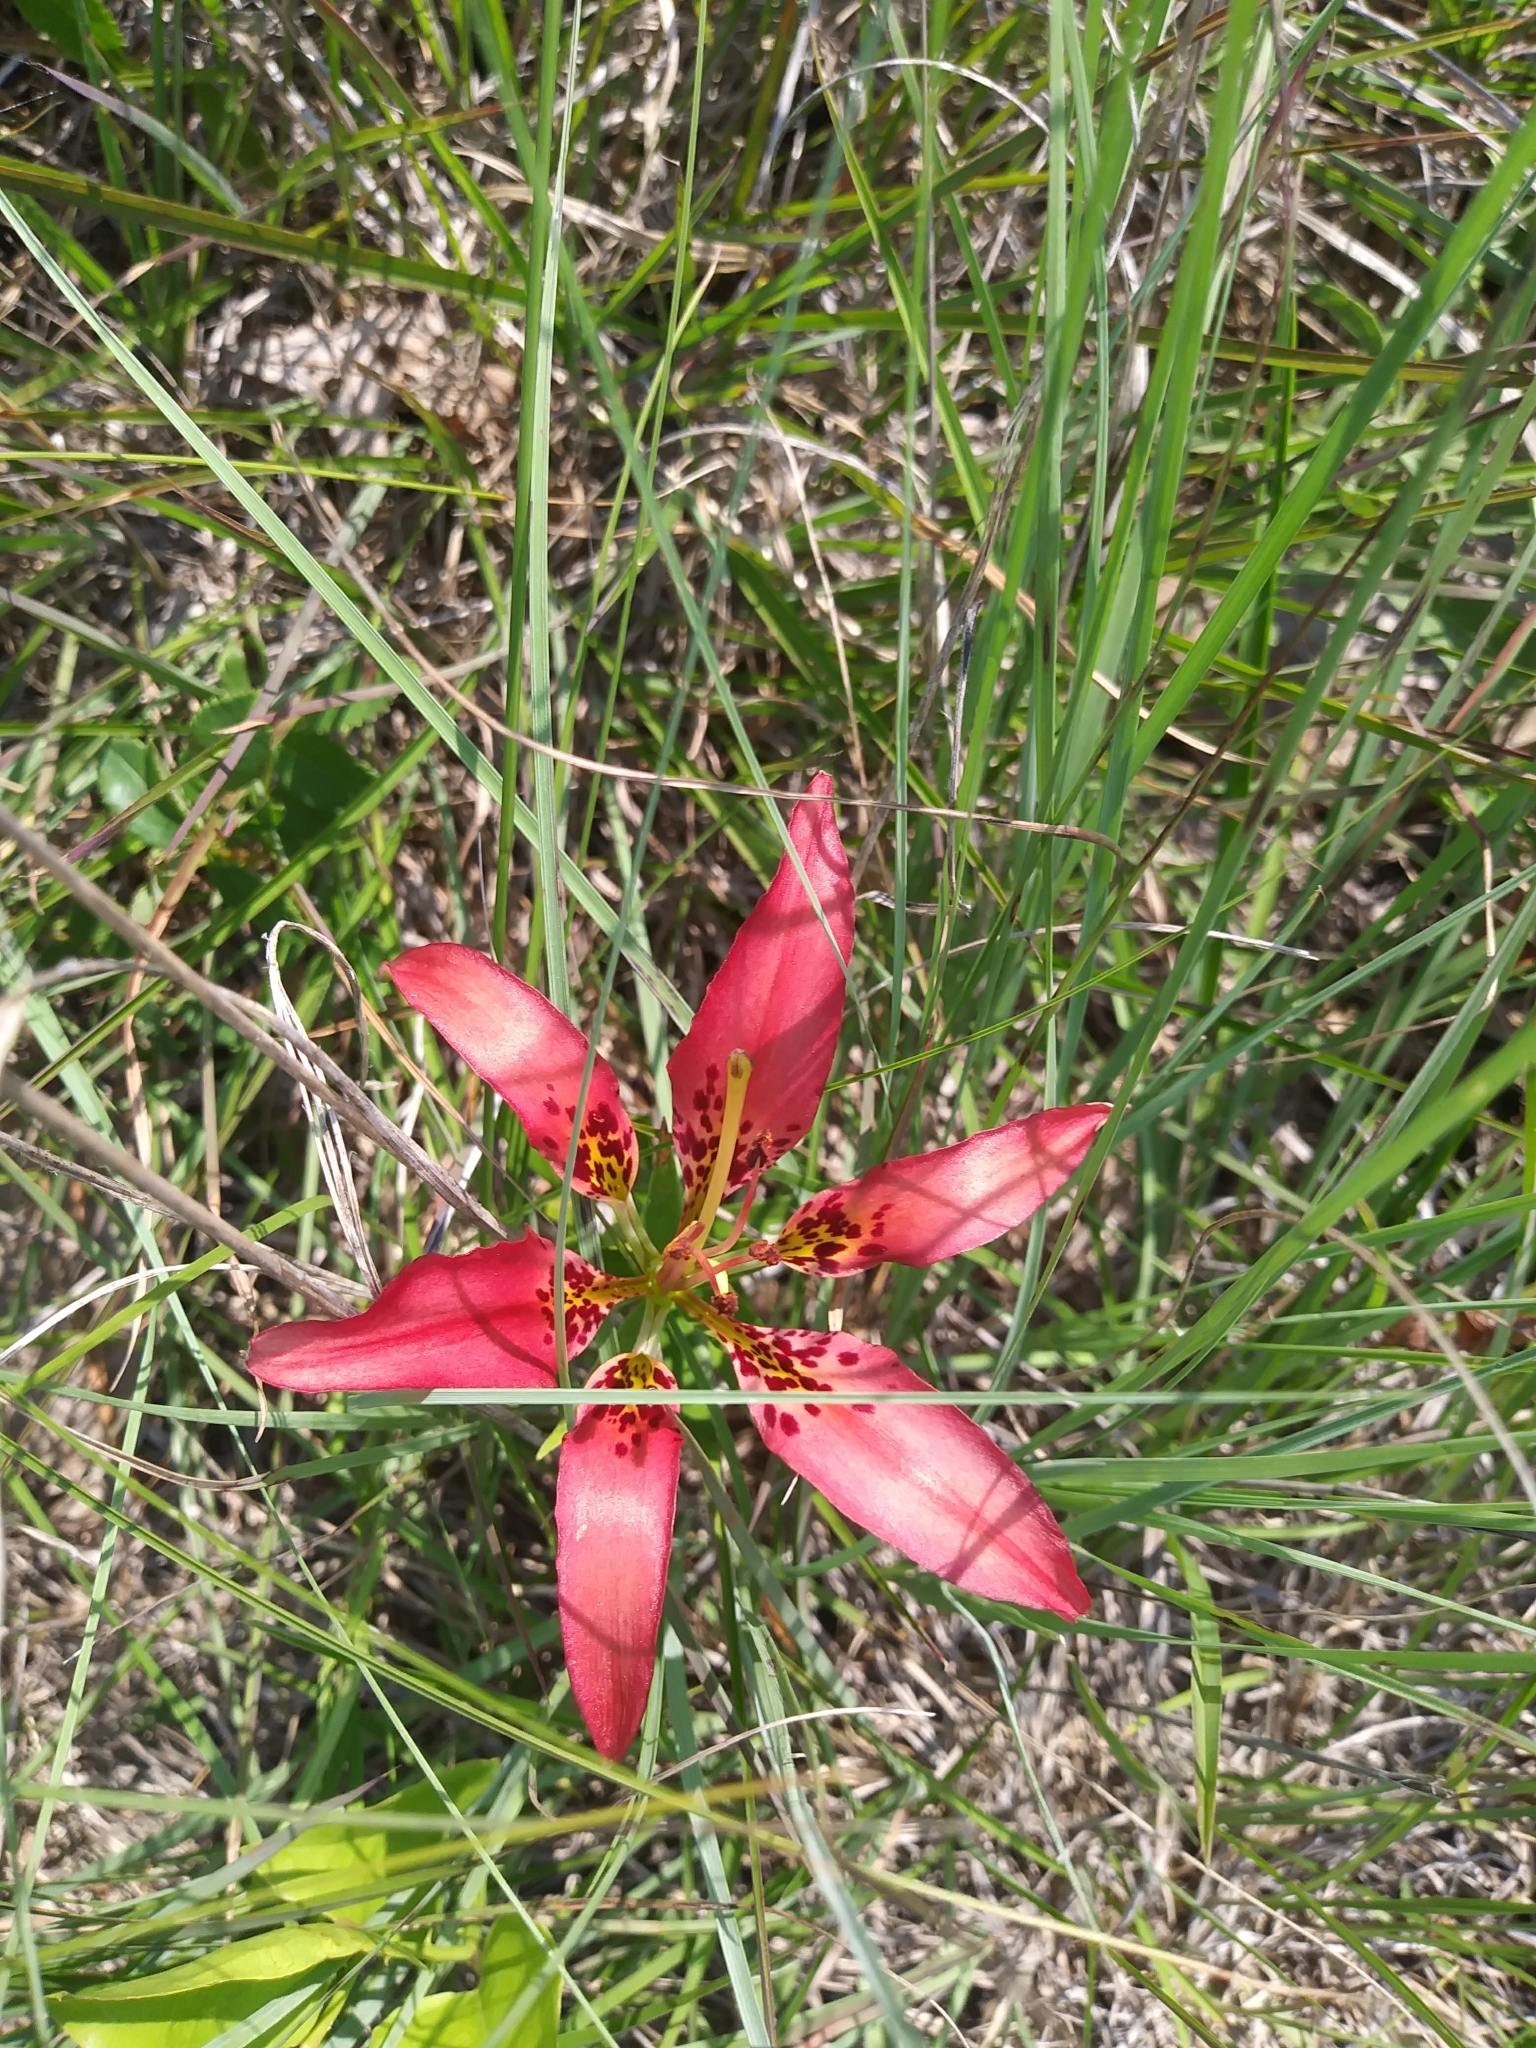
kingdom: Plantae
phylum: Tracheophyta
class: Liliopsida
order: Liliales
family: Liliaceae
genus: Lilium
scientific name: Lilium philadelphicum
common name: Red lily
